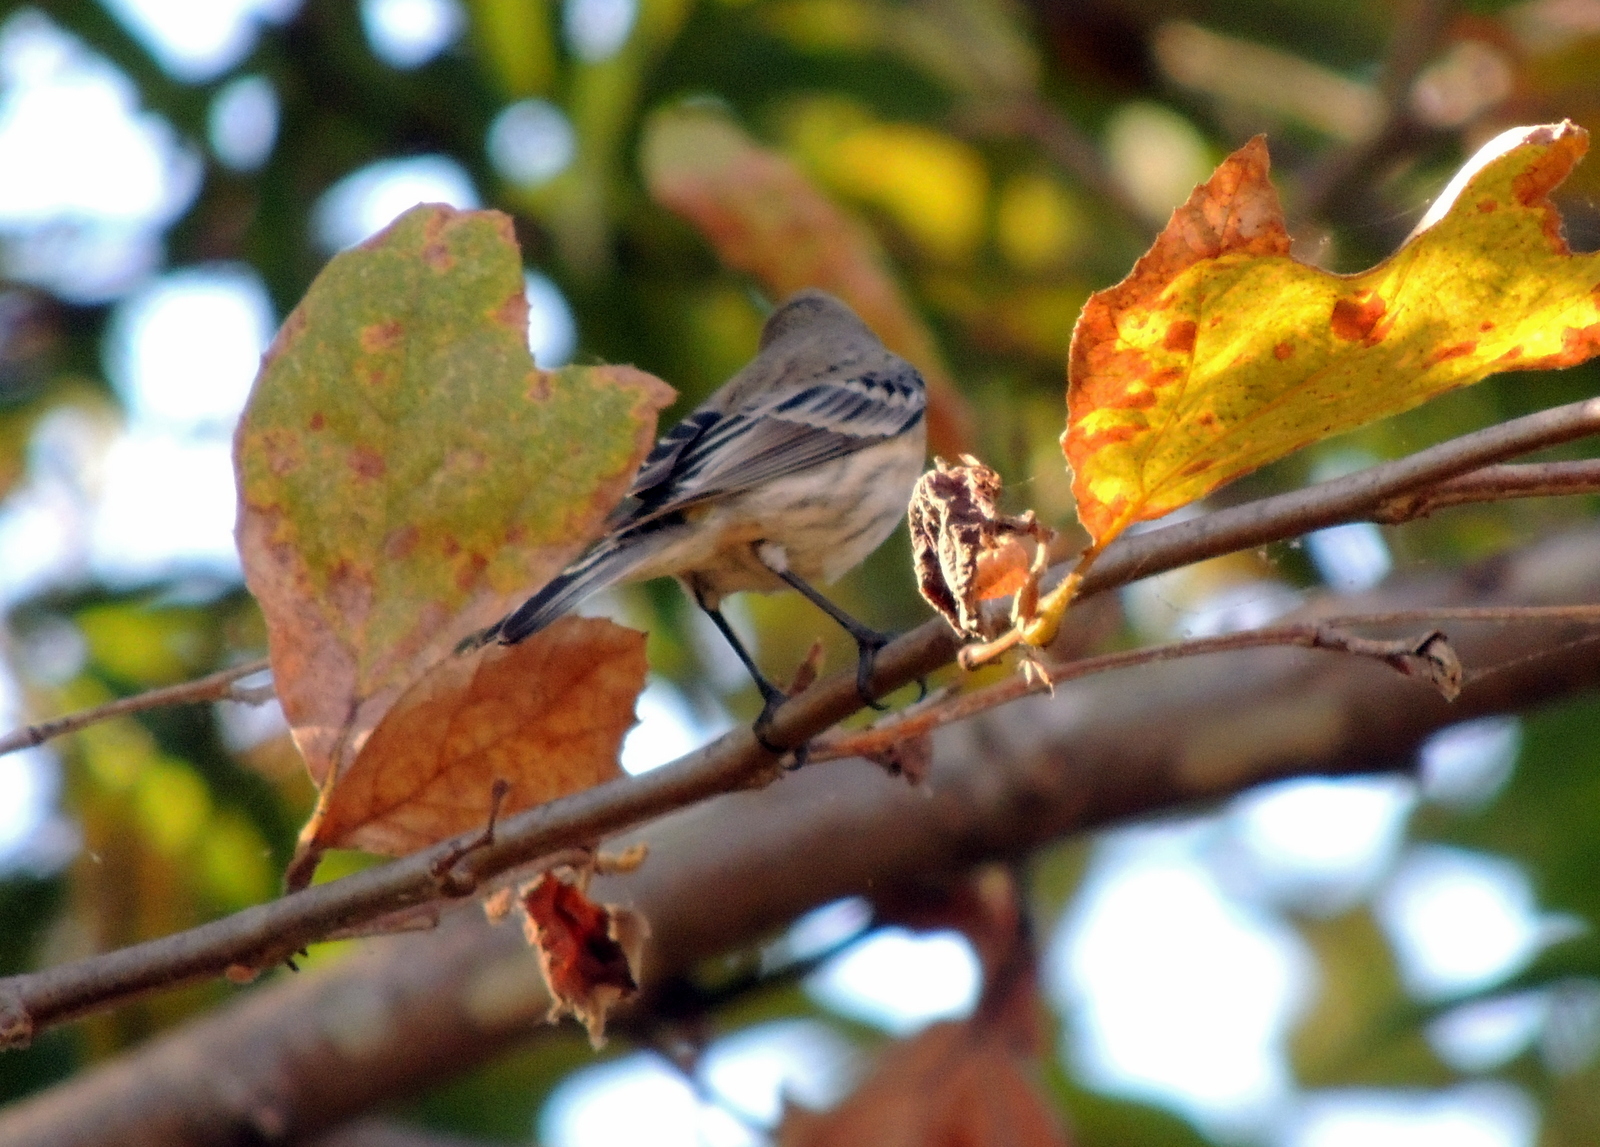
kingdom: Animalia
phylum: Chordata
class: Aves
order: Passeriformes
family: Parulidae
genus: Setophaga
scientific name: Setophaga coronata
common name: Myrtle warbler
